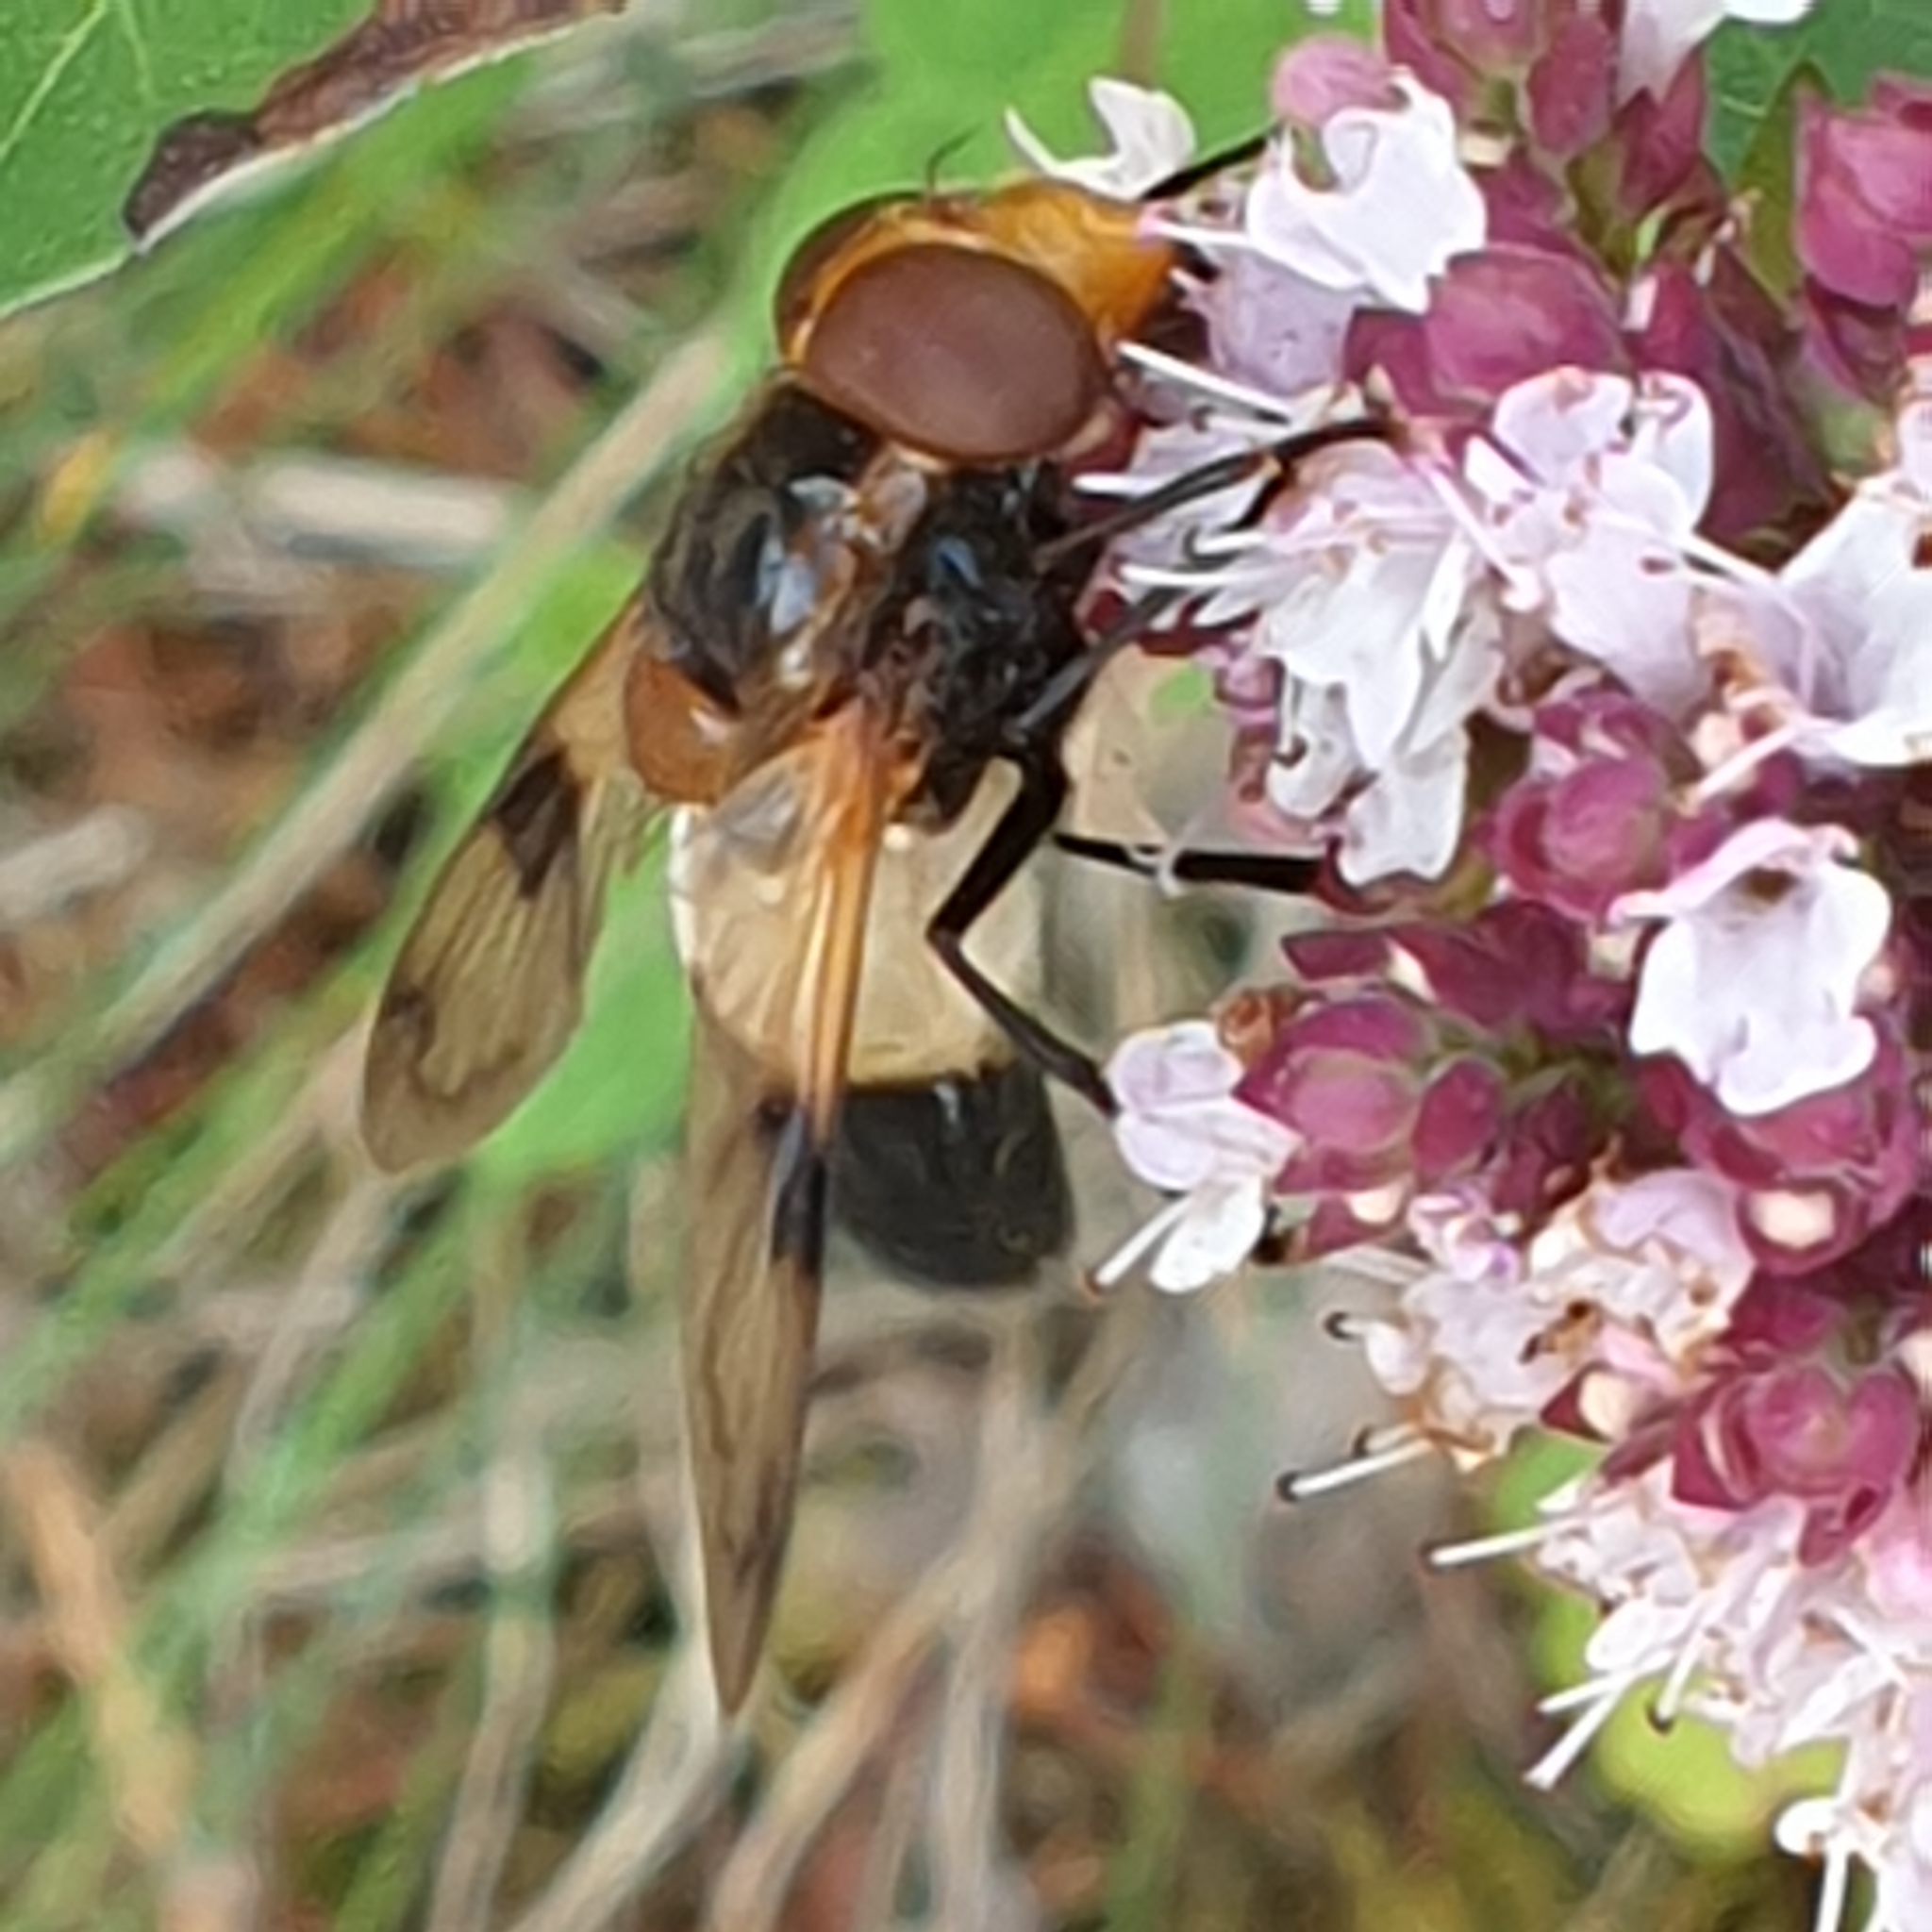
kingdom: Animalia
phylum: Arthropoda
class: Insecta
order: Diptera
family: Syrphidae
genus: Volucella
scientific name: Volucella pellucens
